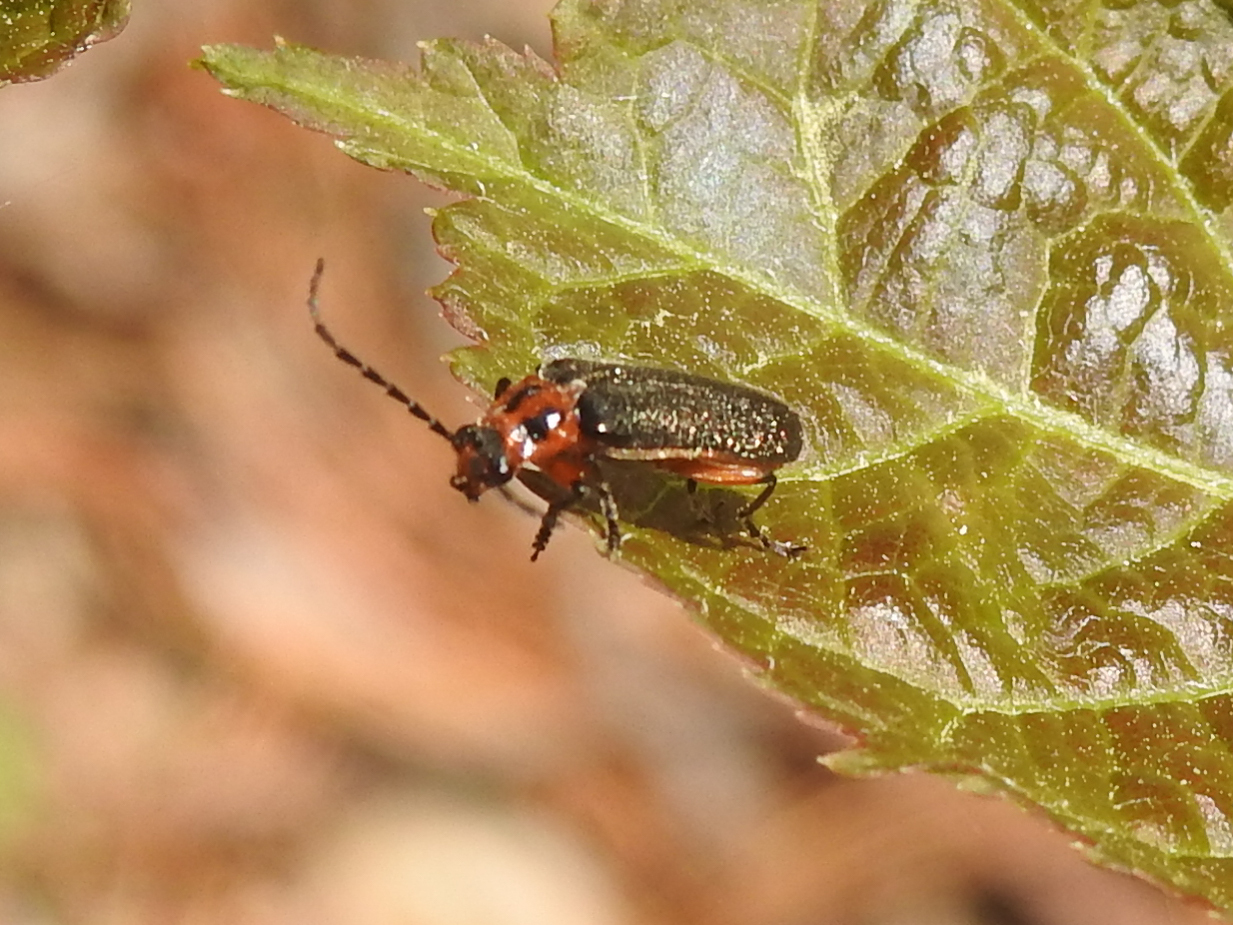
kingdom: Animalia
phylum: Arthropoda
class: Insecta
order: Coleoptera
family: Cantharidae
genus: Atalantycha
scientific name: Atalantycha bilineata
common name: Two-lined leatherwing
